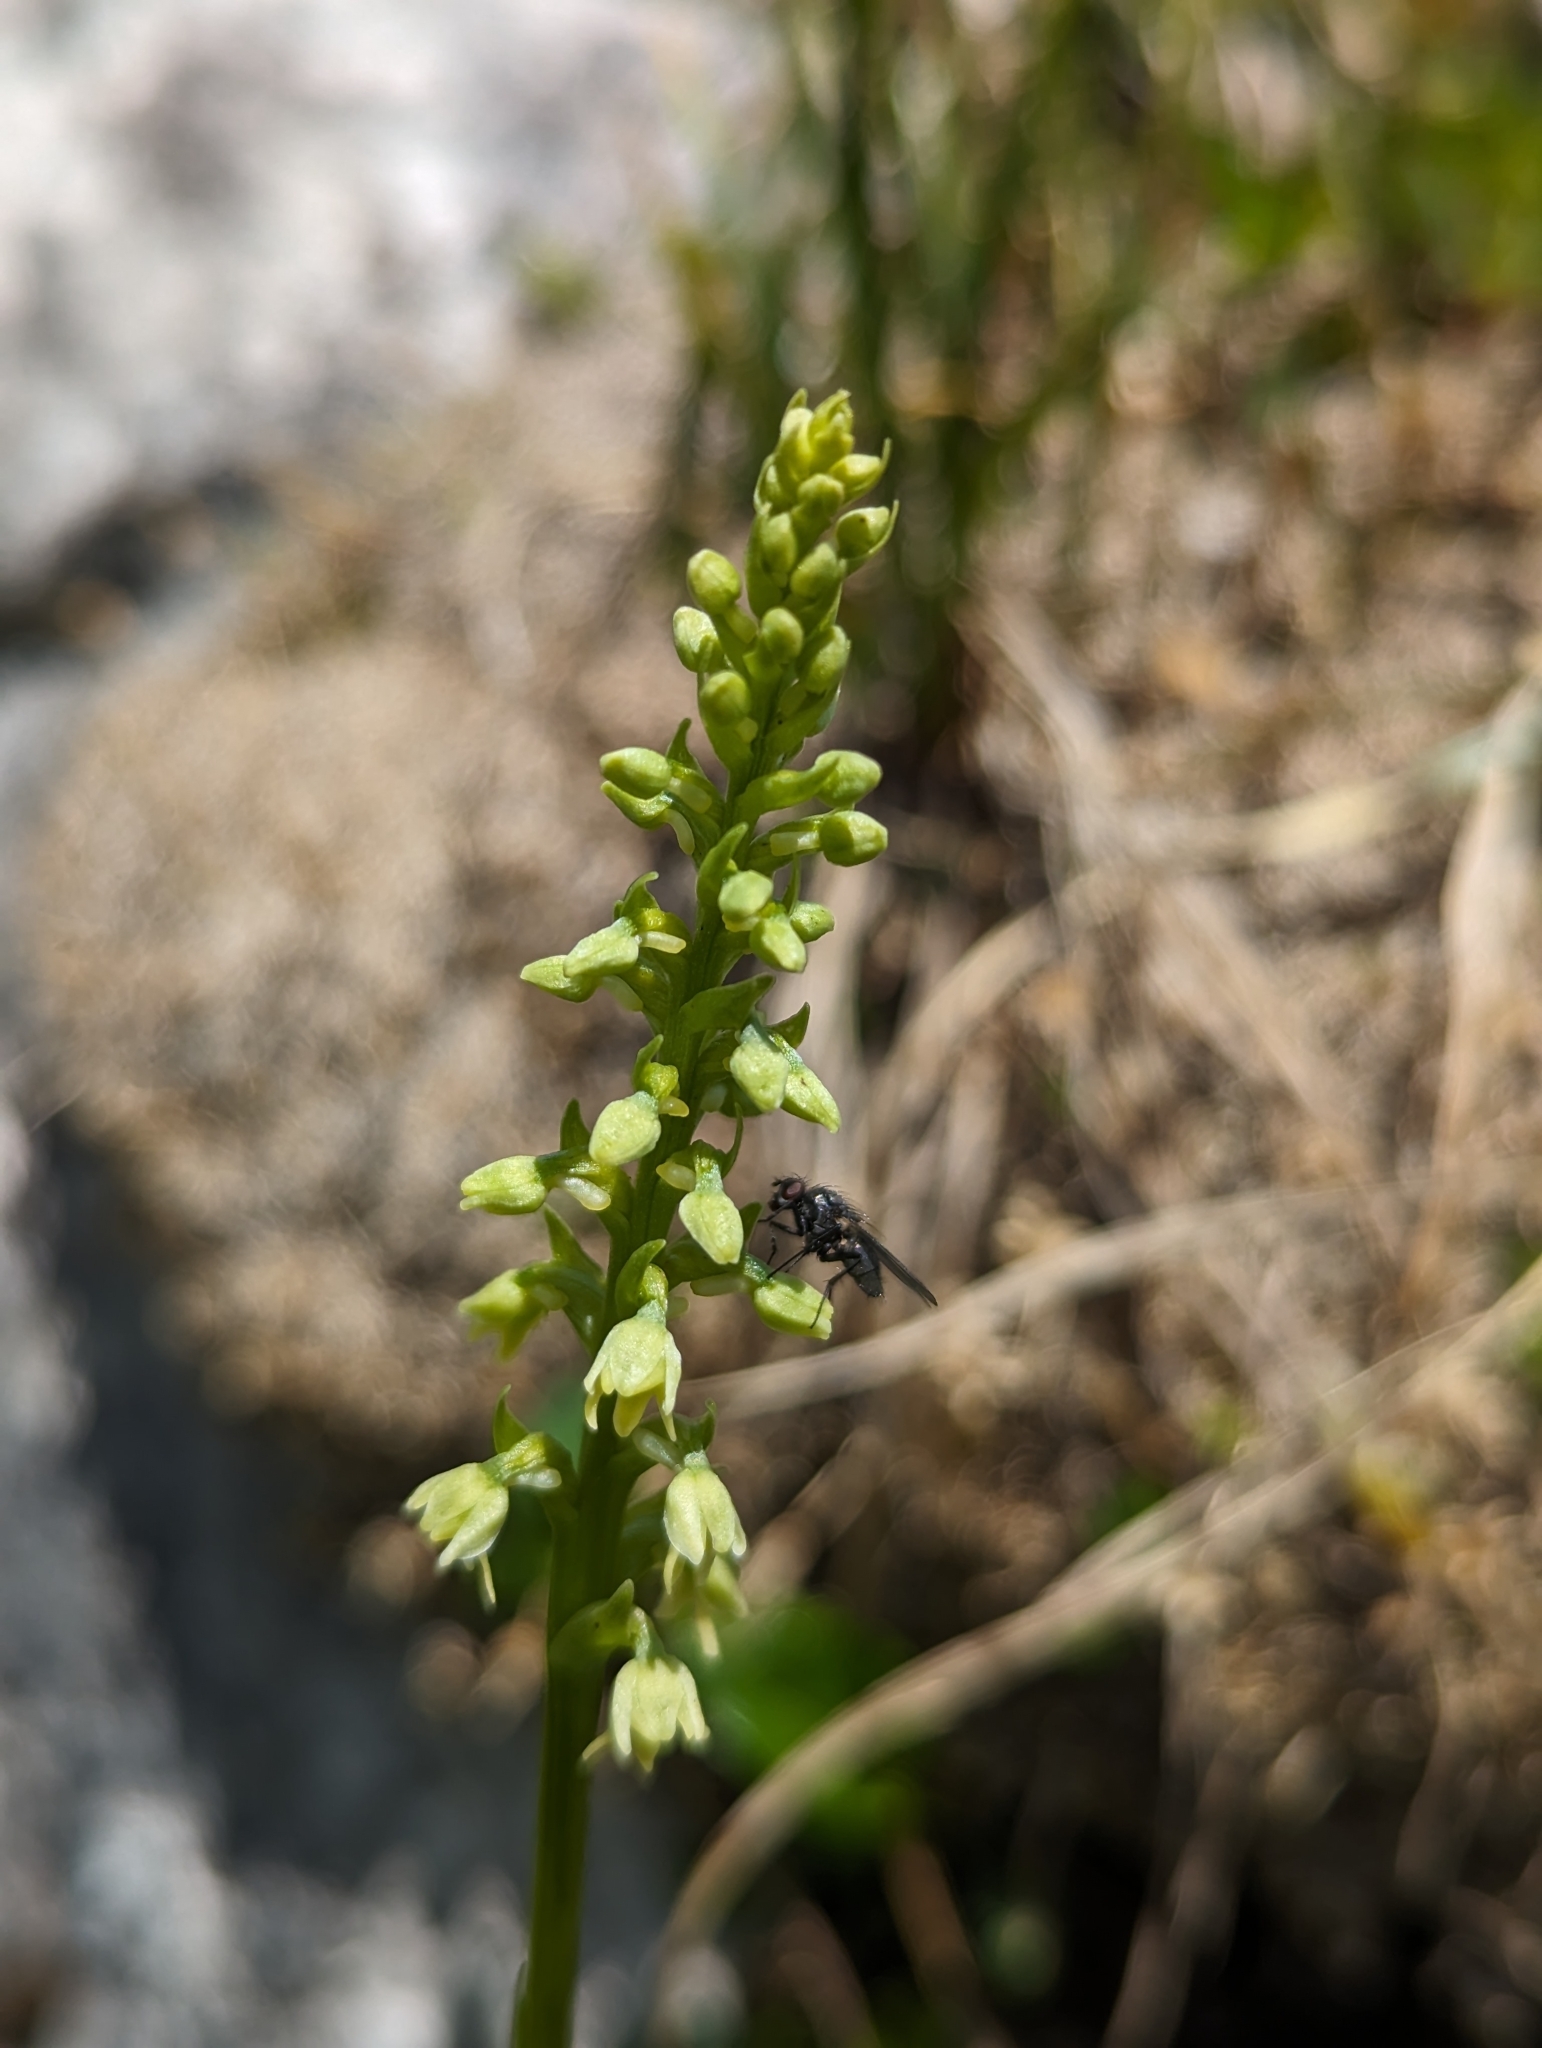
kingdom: Plantae
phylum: Tracheophyta
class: Liliopsida
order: Asparagales
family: Orchidaceae
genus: Pseudorchis
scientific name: Pseudorchis albida
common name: Small-white orchid
